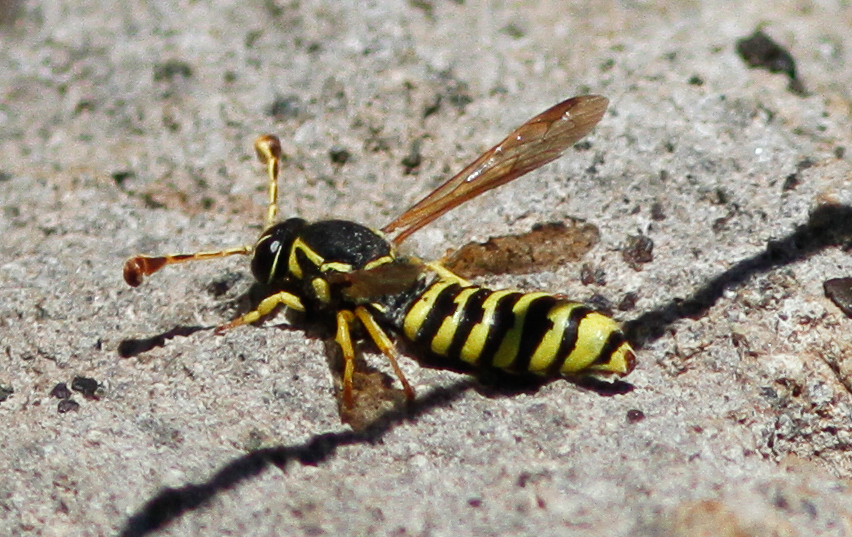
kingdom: Animalia
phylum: Arthropoda
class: Insecta
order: Hymenoptera
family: Masaridae
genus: Pseudomasaris
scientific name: Pseudomasaris edwardsi
